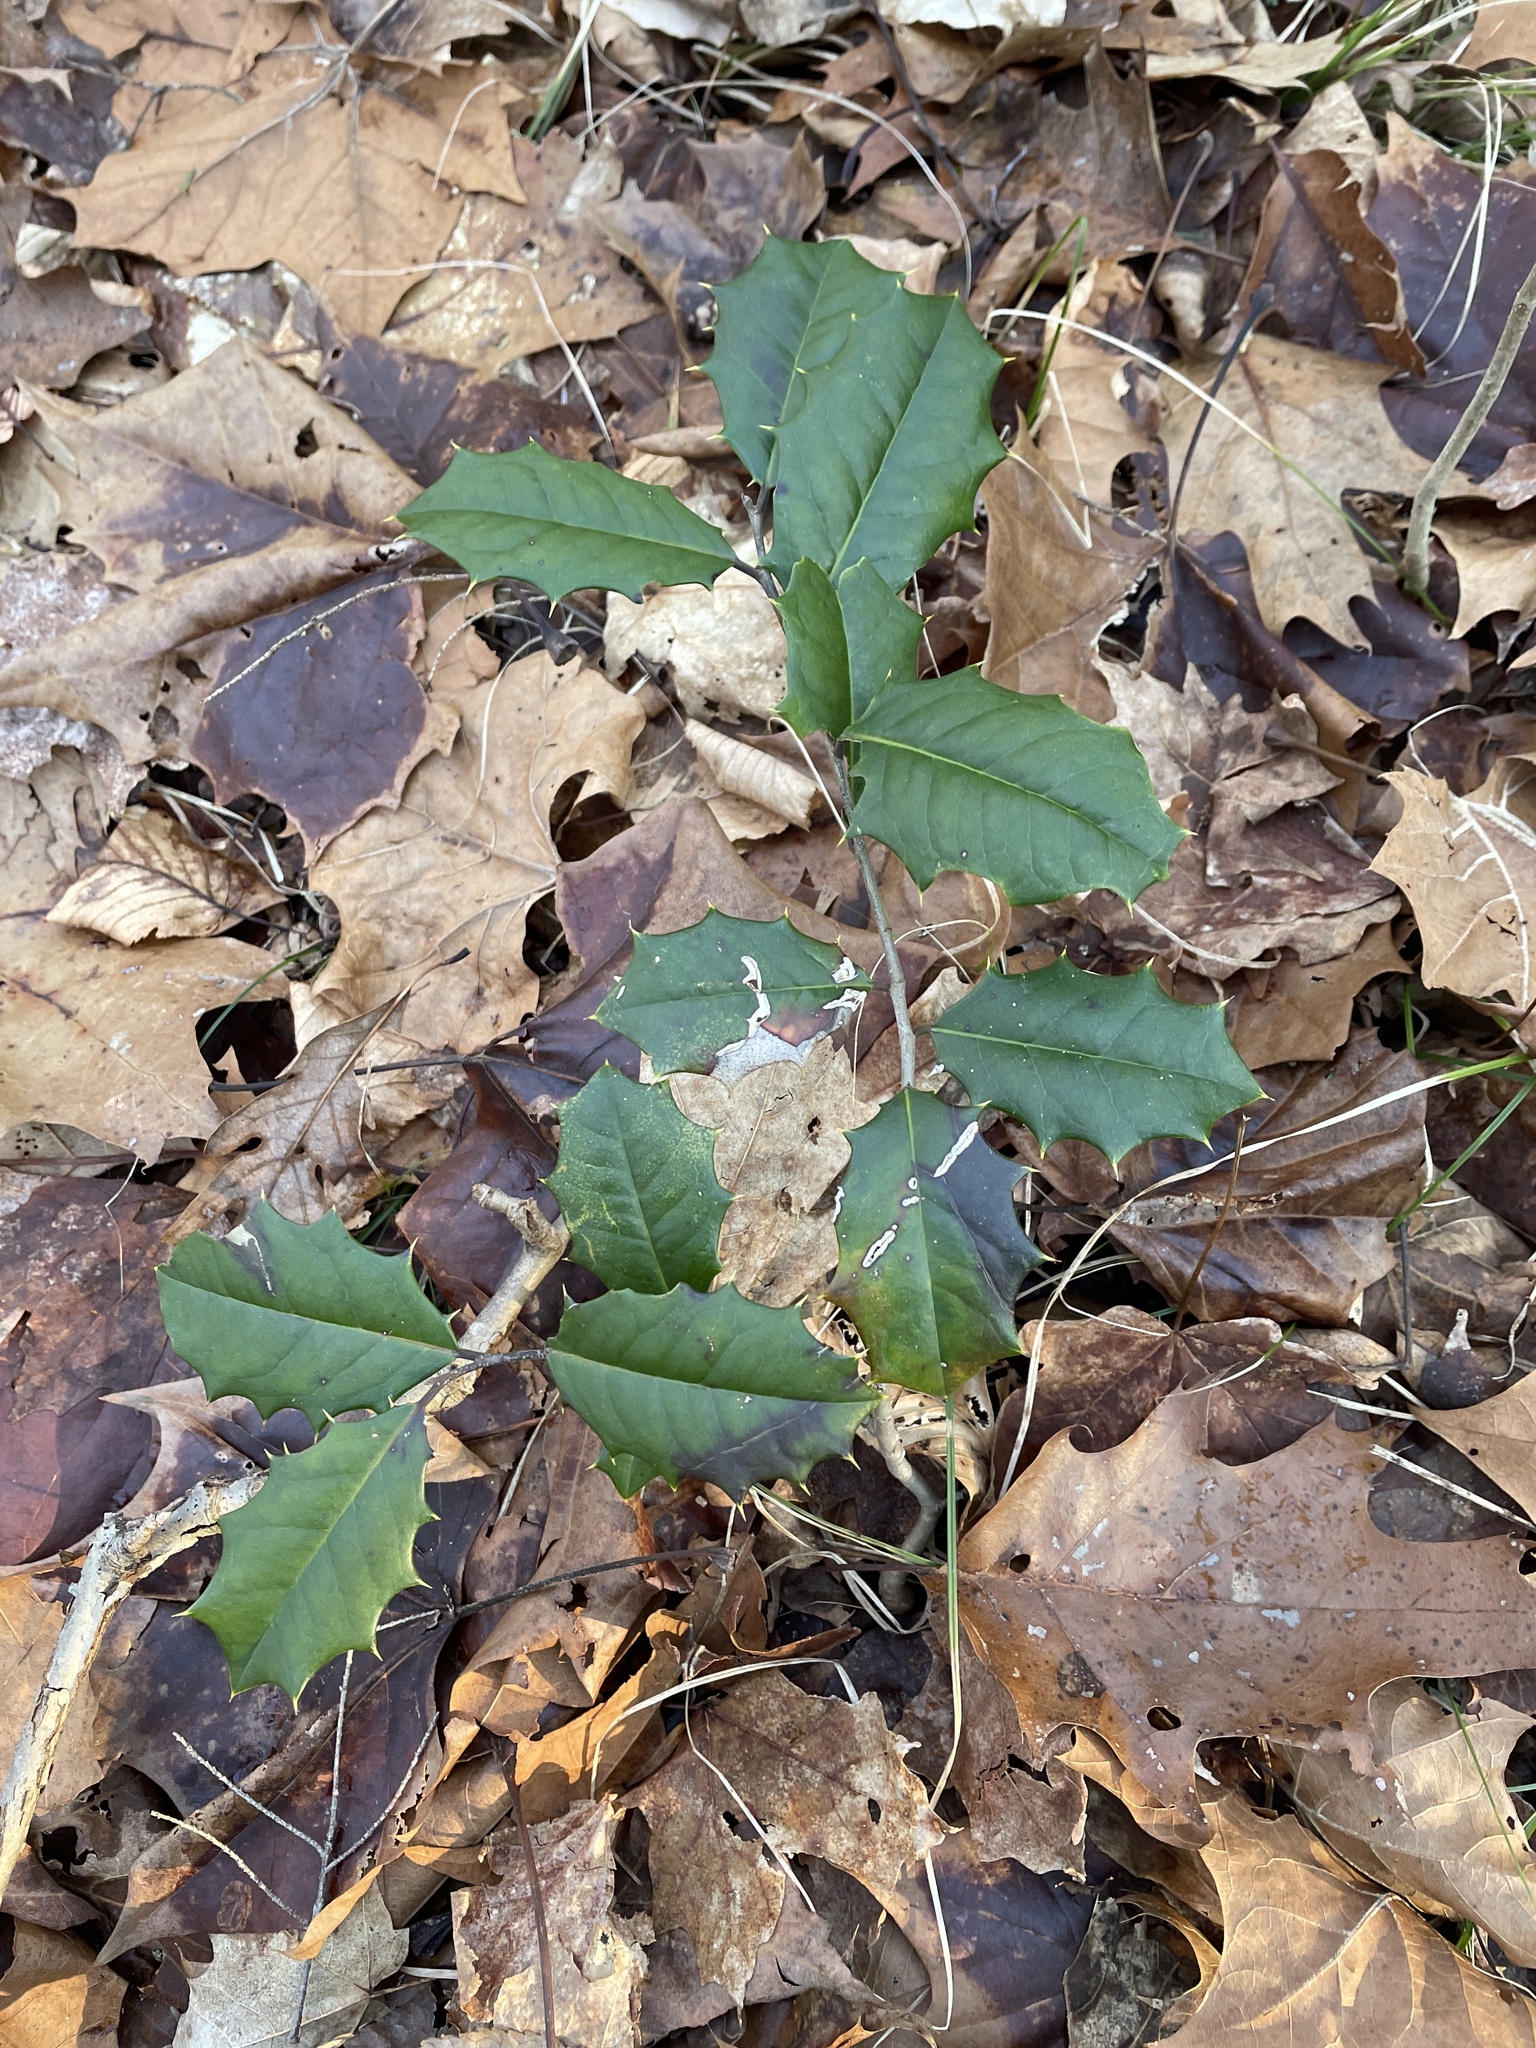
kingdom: Plantae
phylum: Tracheophyta
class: Magnoliopsida
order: Aquifoliales
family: Aquifoliaceae
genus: Ilex
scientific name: Ilex opaca
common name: American holly
